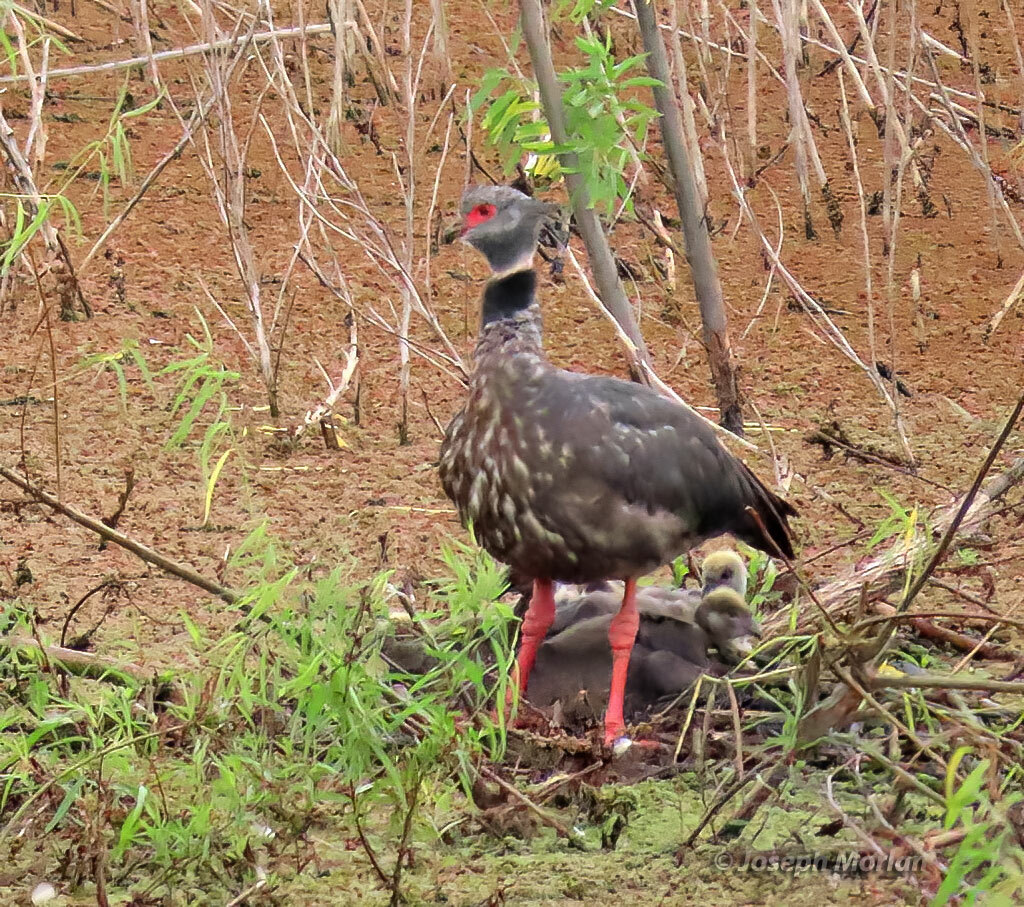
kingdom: Animalia
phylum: Chordata
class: Aves
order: Anseriformes
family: Anhimidae
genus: Chauna
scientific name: Chauna torquata
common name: Southern screamer
